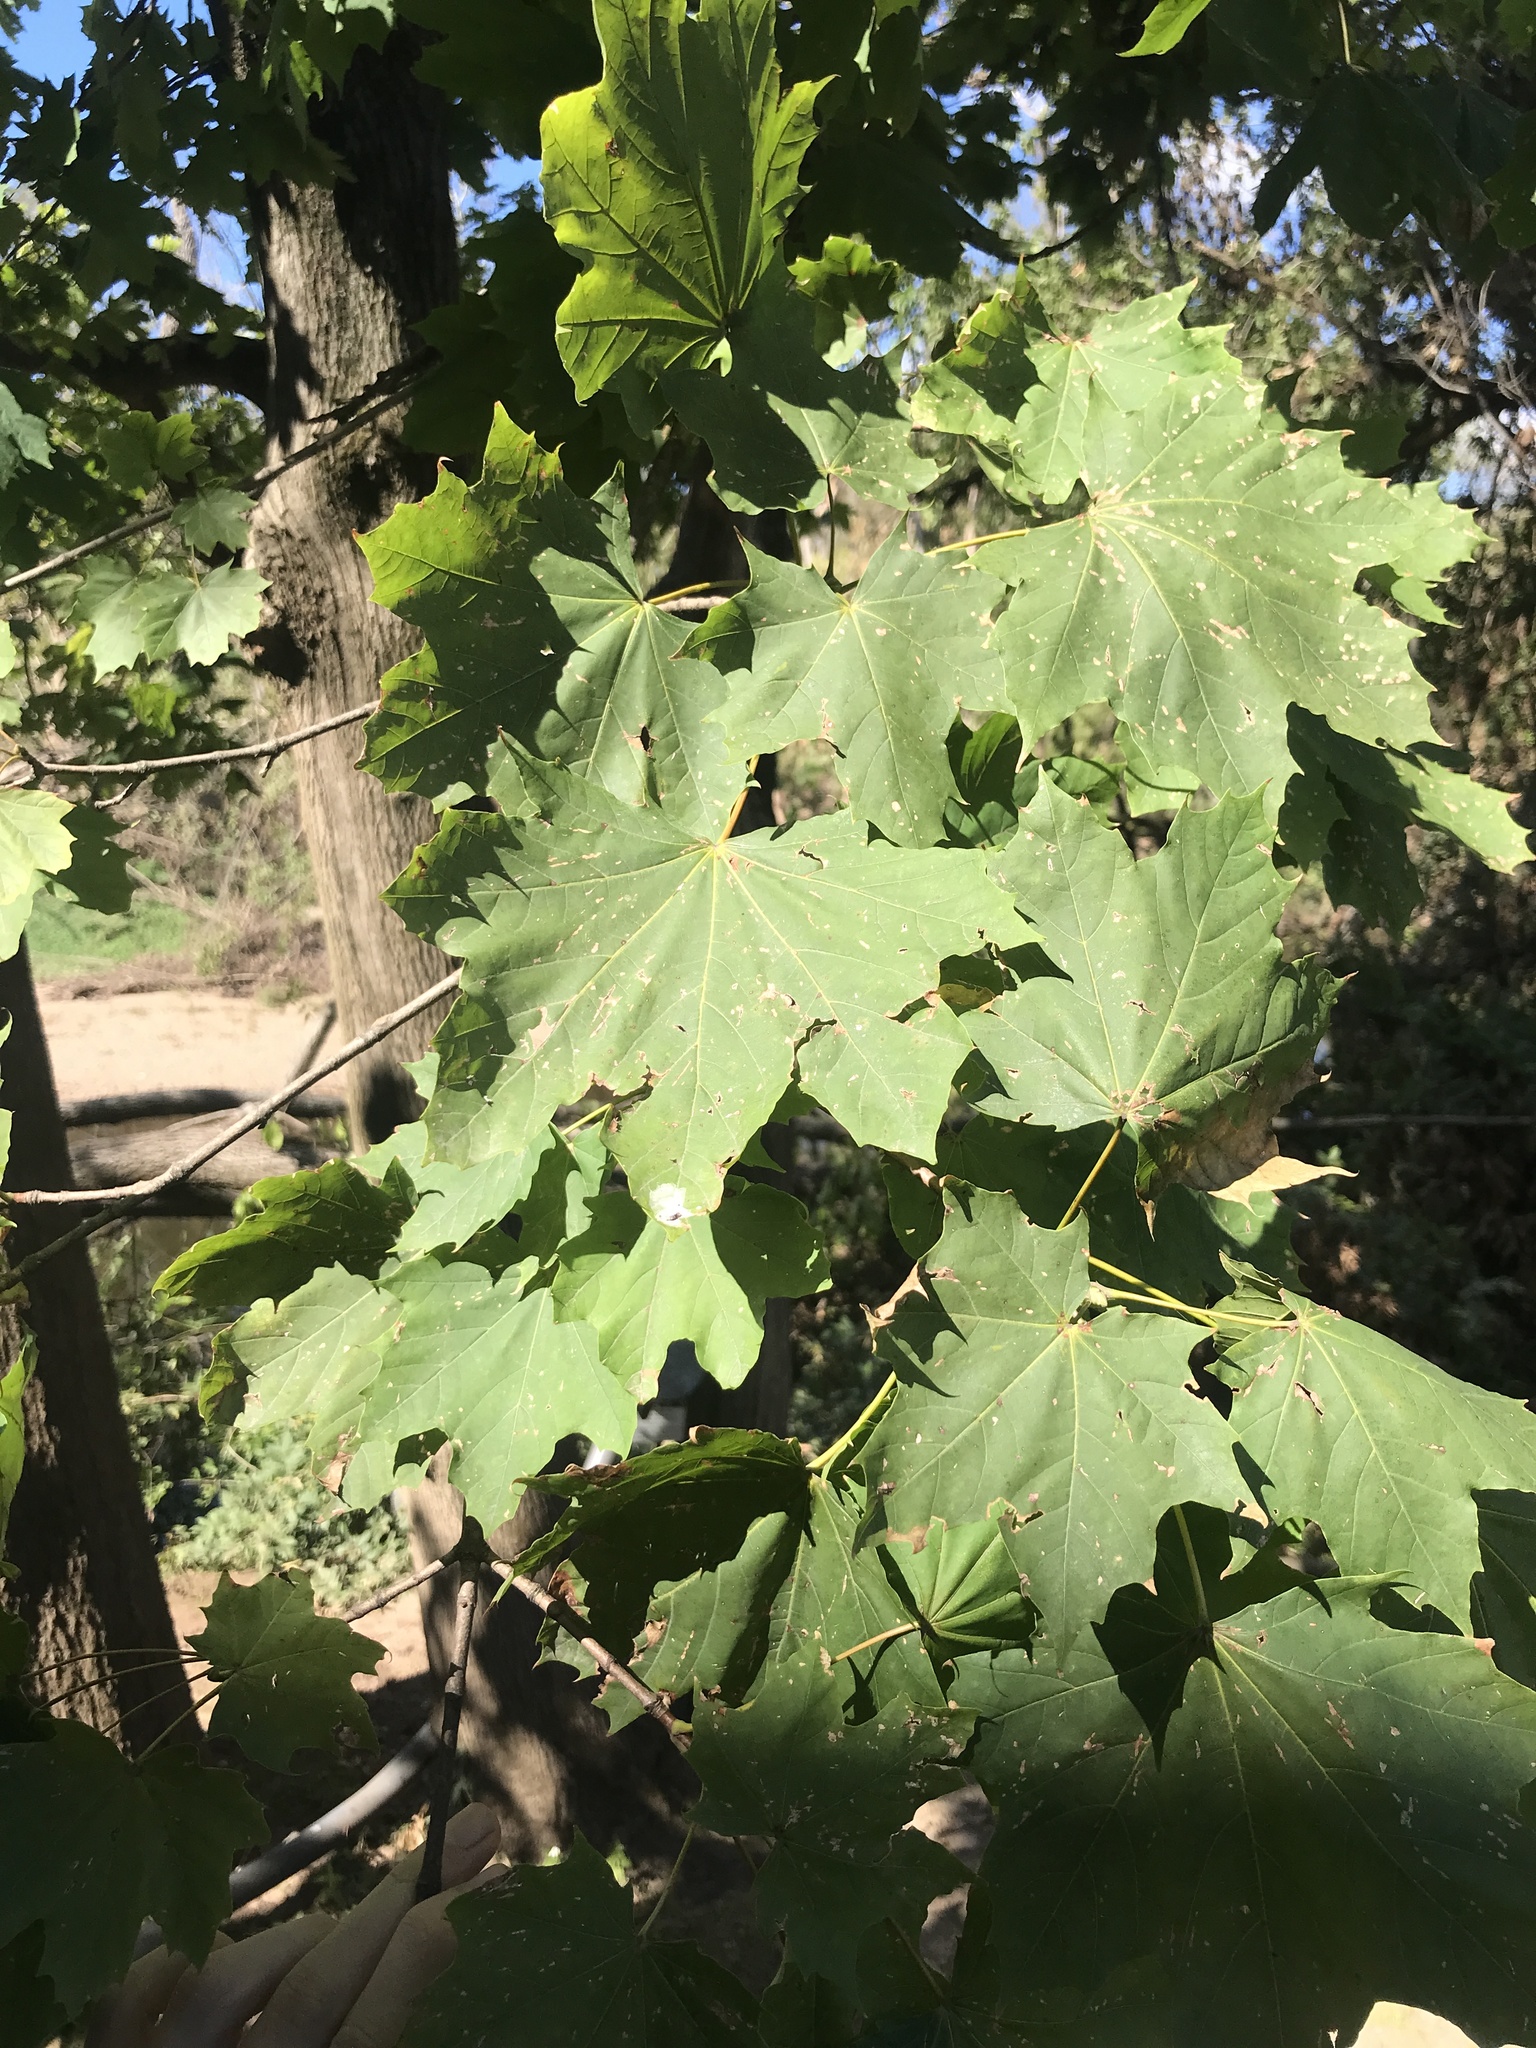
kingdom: Plantae
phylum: Tracheophyta
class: Magnoliopsida
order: Sapindales
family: Sapindaceae
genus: Acer
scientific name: Acer platanoides
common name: Norway maple
